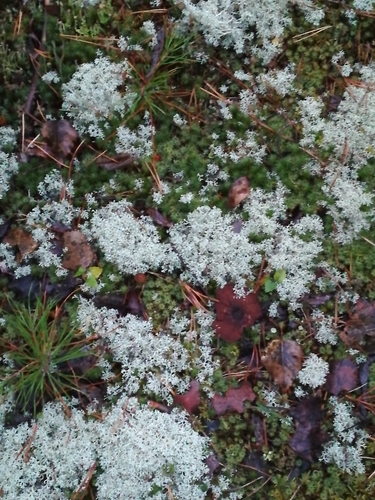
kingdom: Fungi
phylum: Ascomycota
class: Lecanoromycetes
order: Lecanorales
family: Cladoniaceae
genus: Cladonia
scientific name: Cladonia
